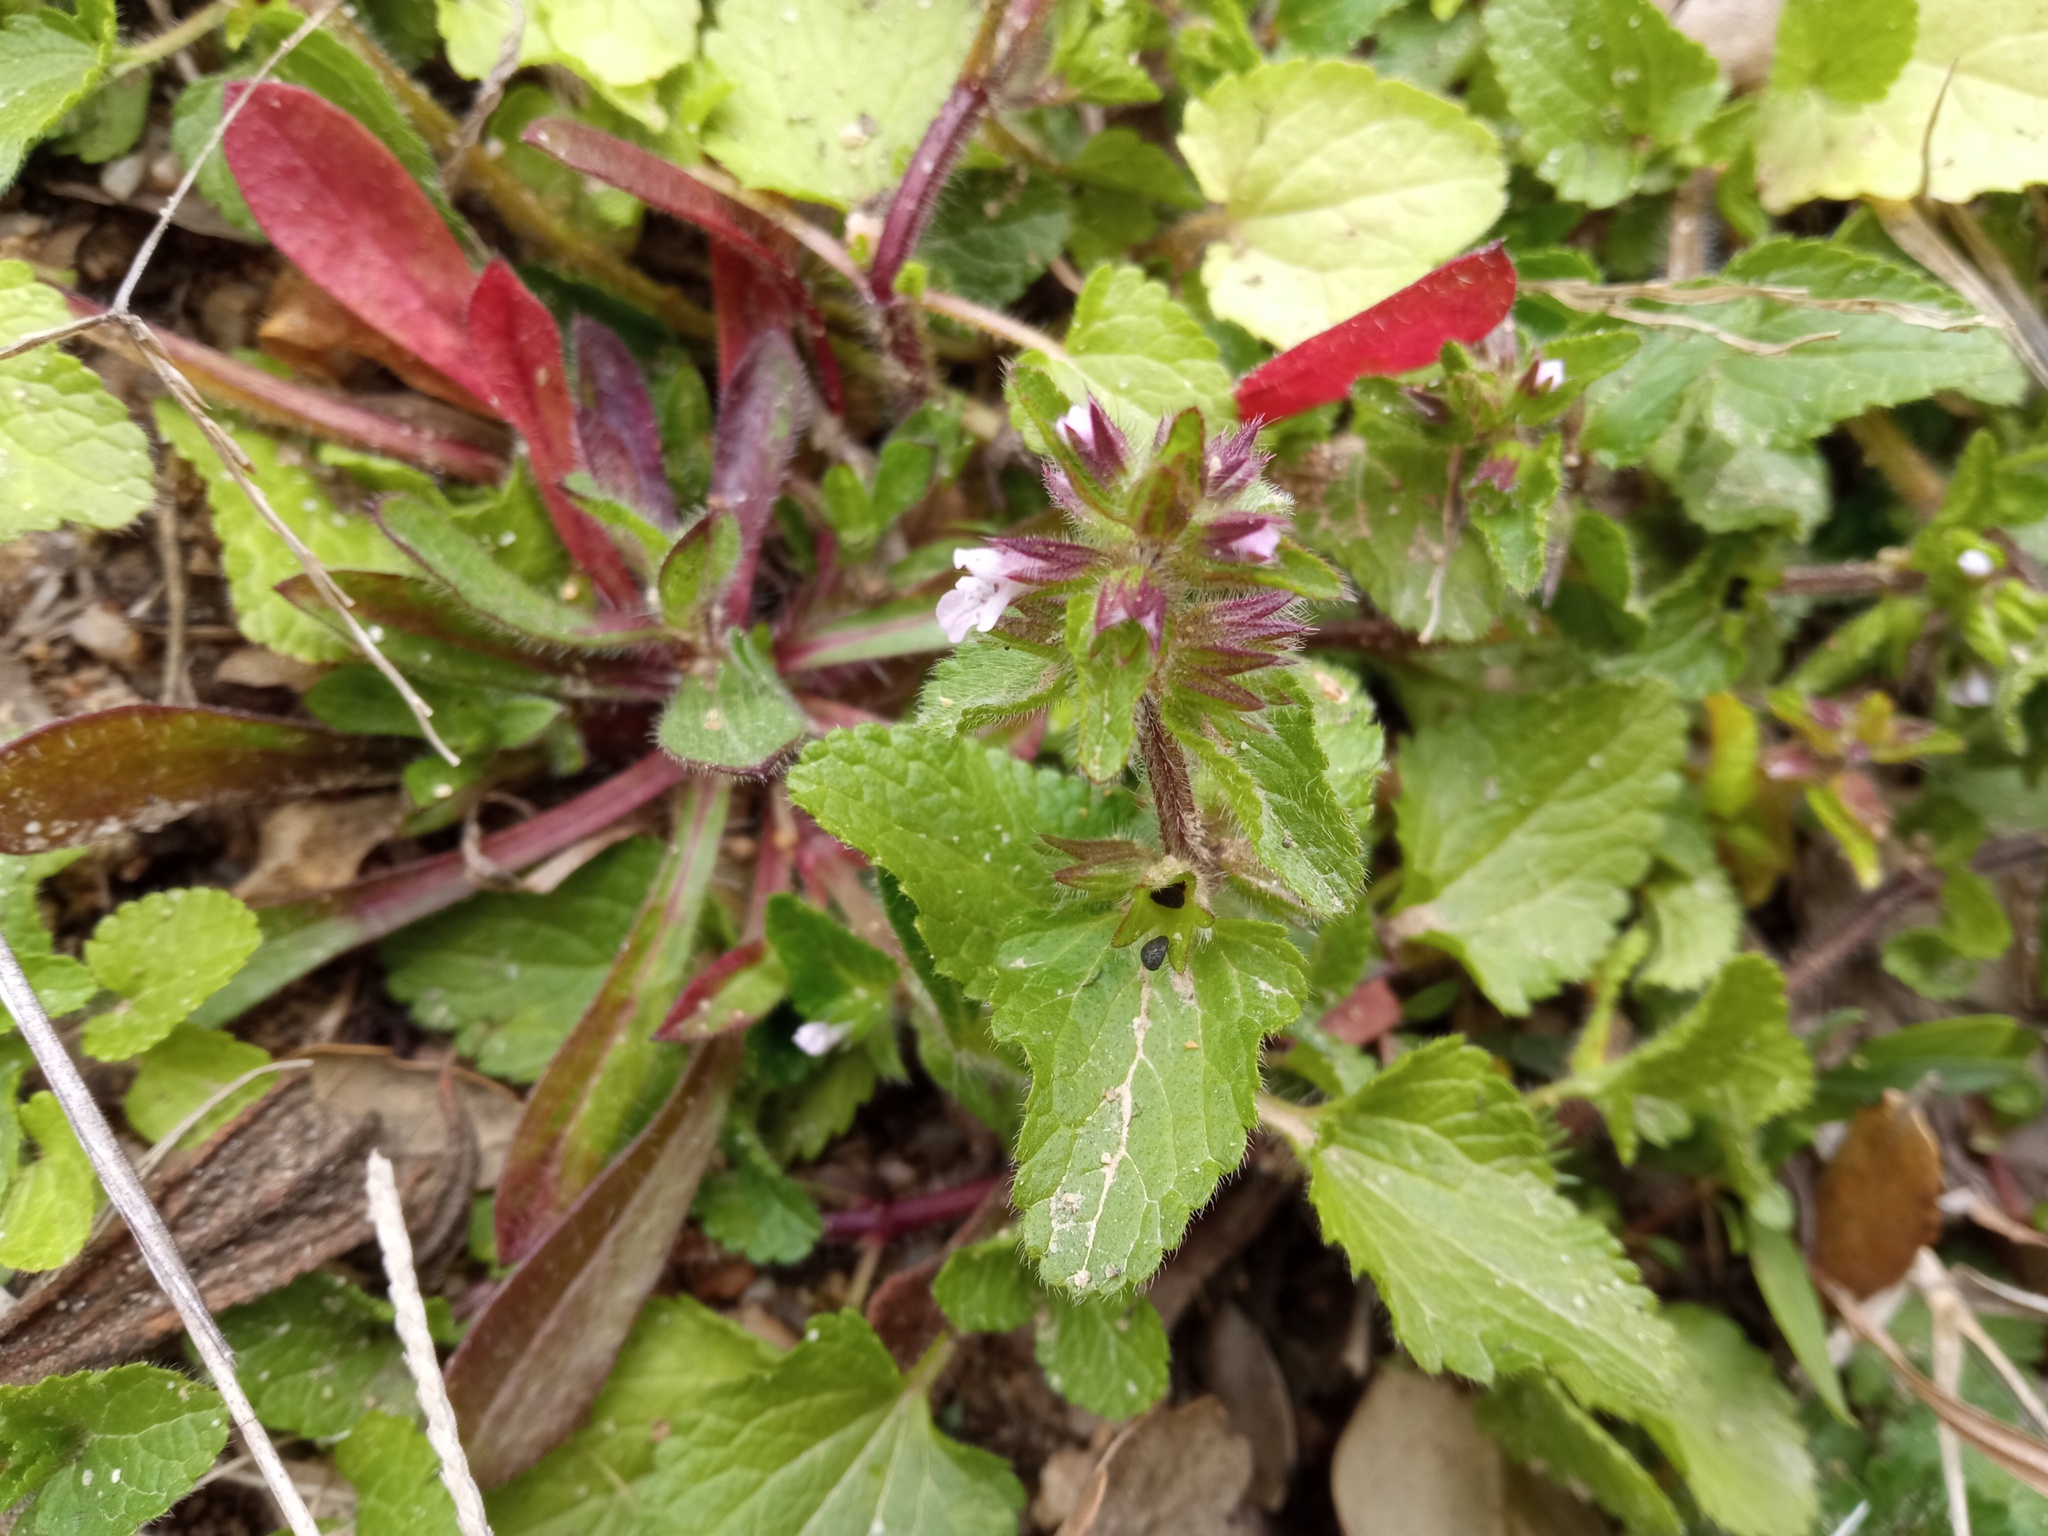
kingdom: Plantae
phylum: Tracheophyta
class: Magnoliopsida
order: Lamiales
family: Lamiaceae
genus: Stachys
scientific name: Stachys arvensis
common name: Field woundwort
